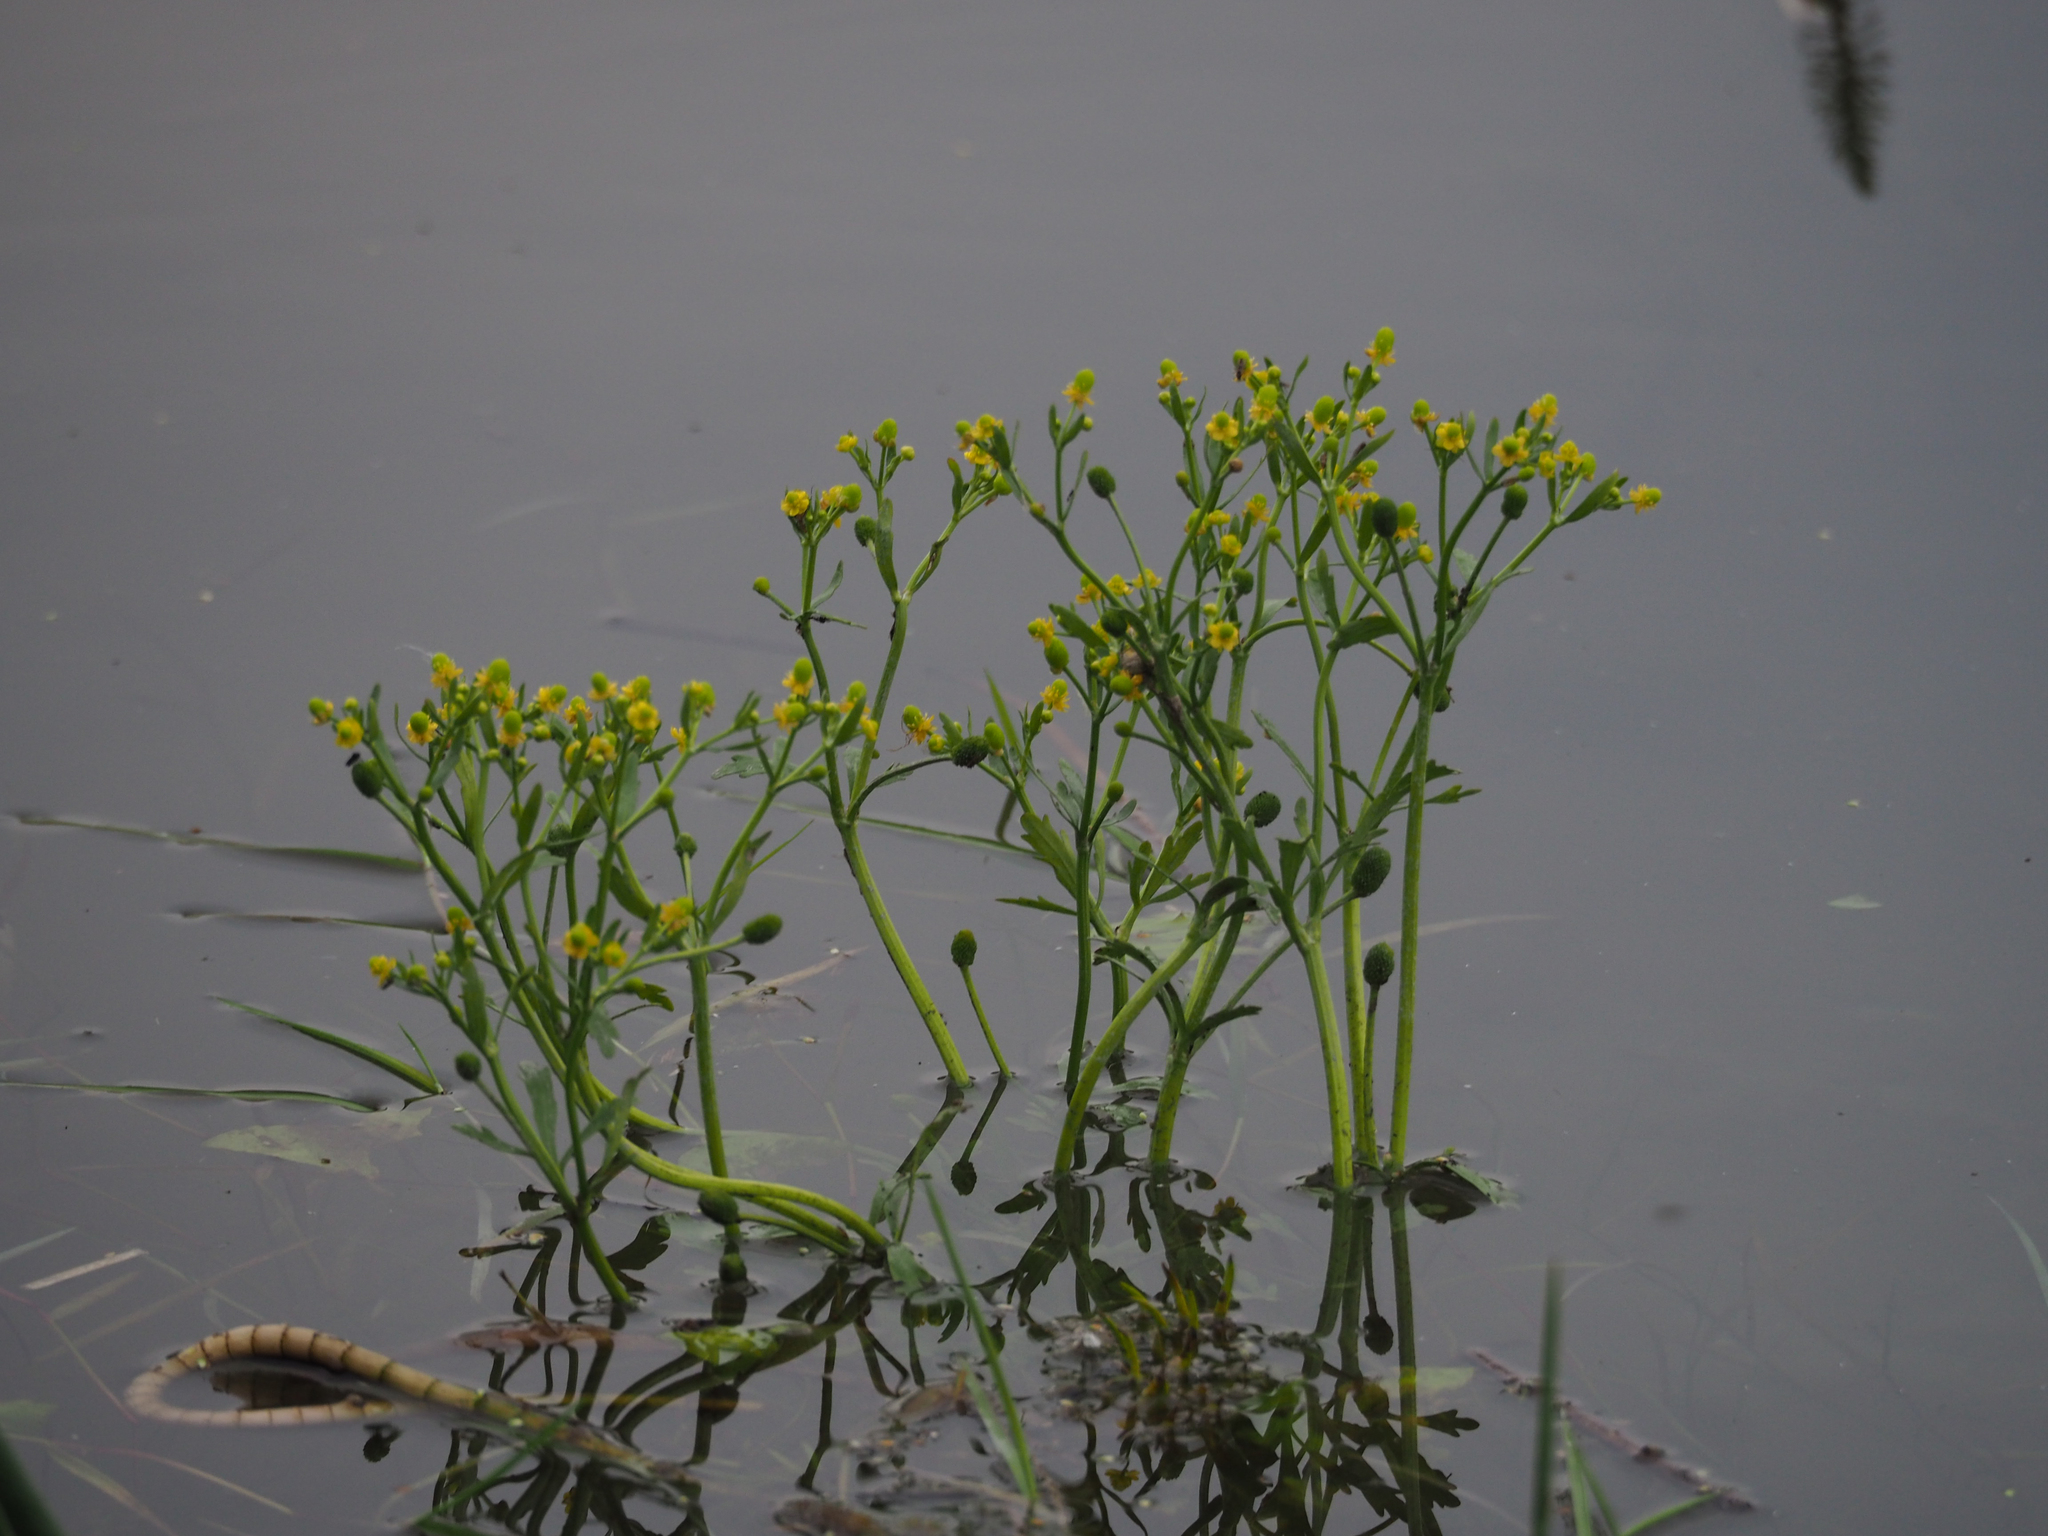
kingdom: Plantae
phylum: Tracheophyta
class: Magnoliopsida
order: Ranunculales
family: Ranunculaceae
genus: Ranunculus
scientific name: Ranunculus sceleratus
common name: Celery-leaved buttercup
